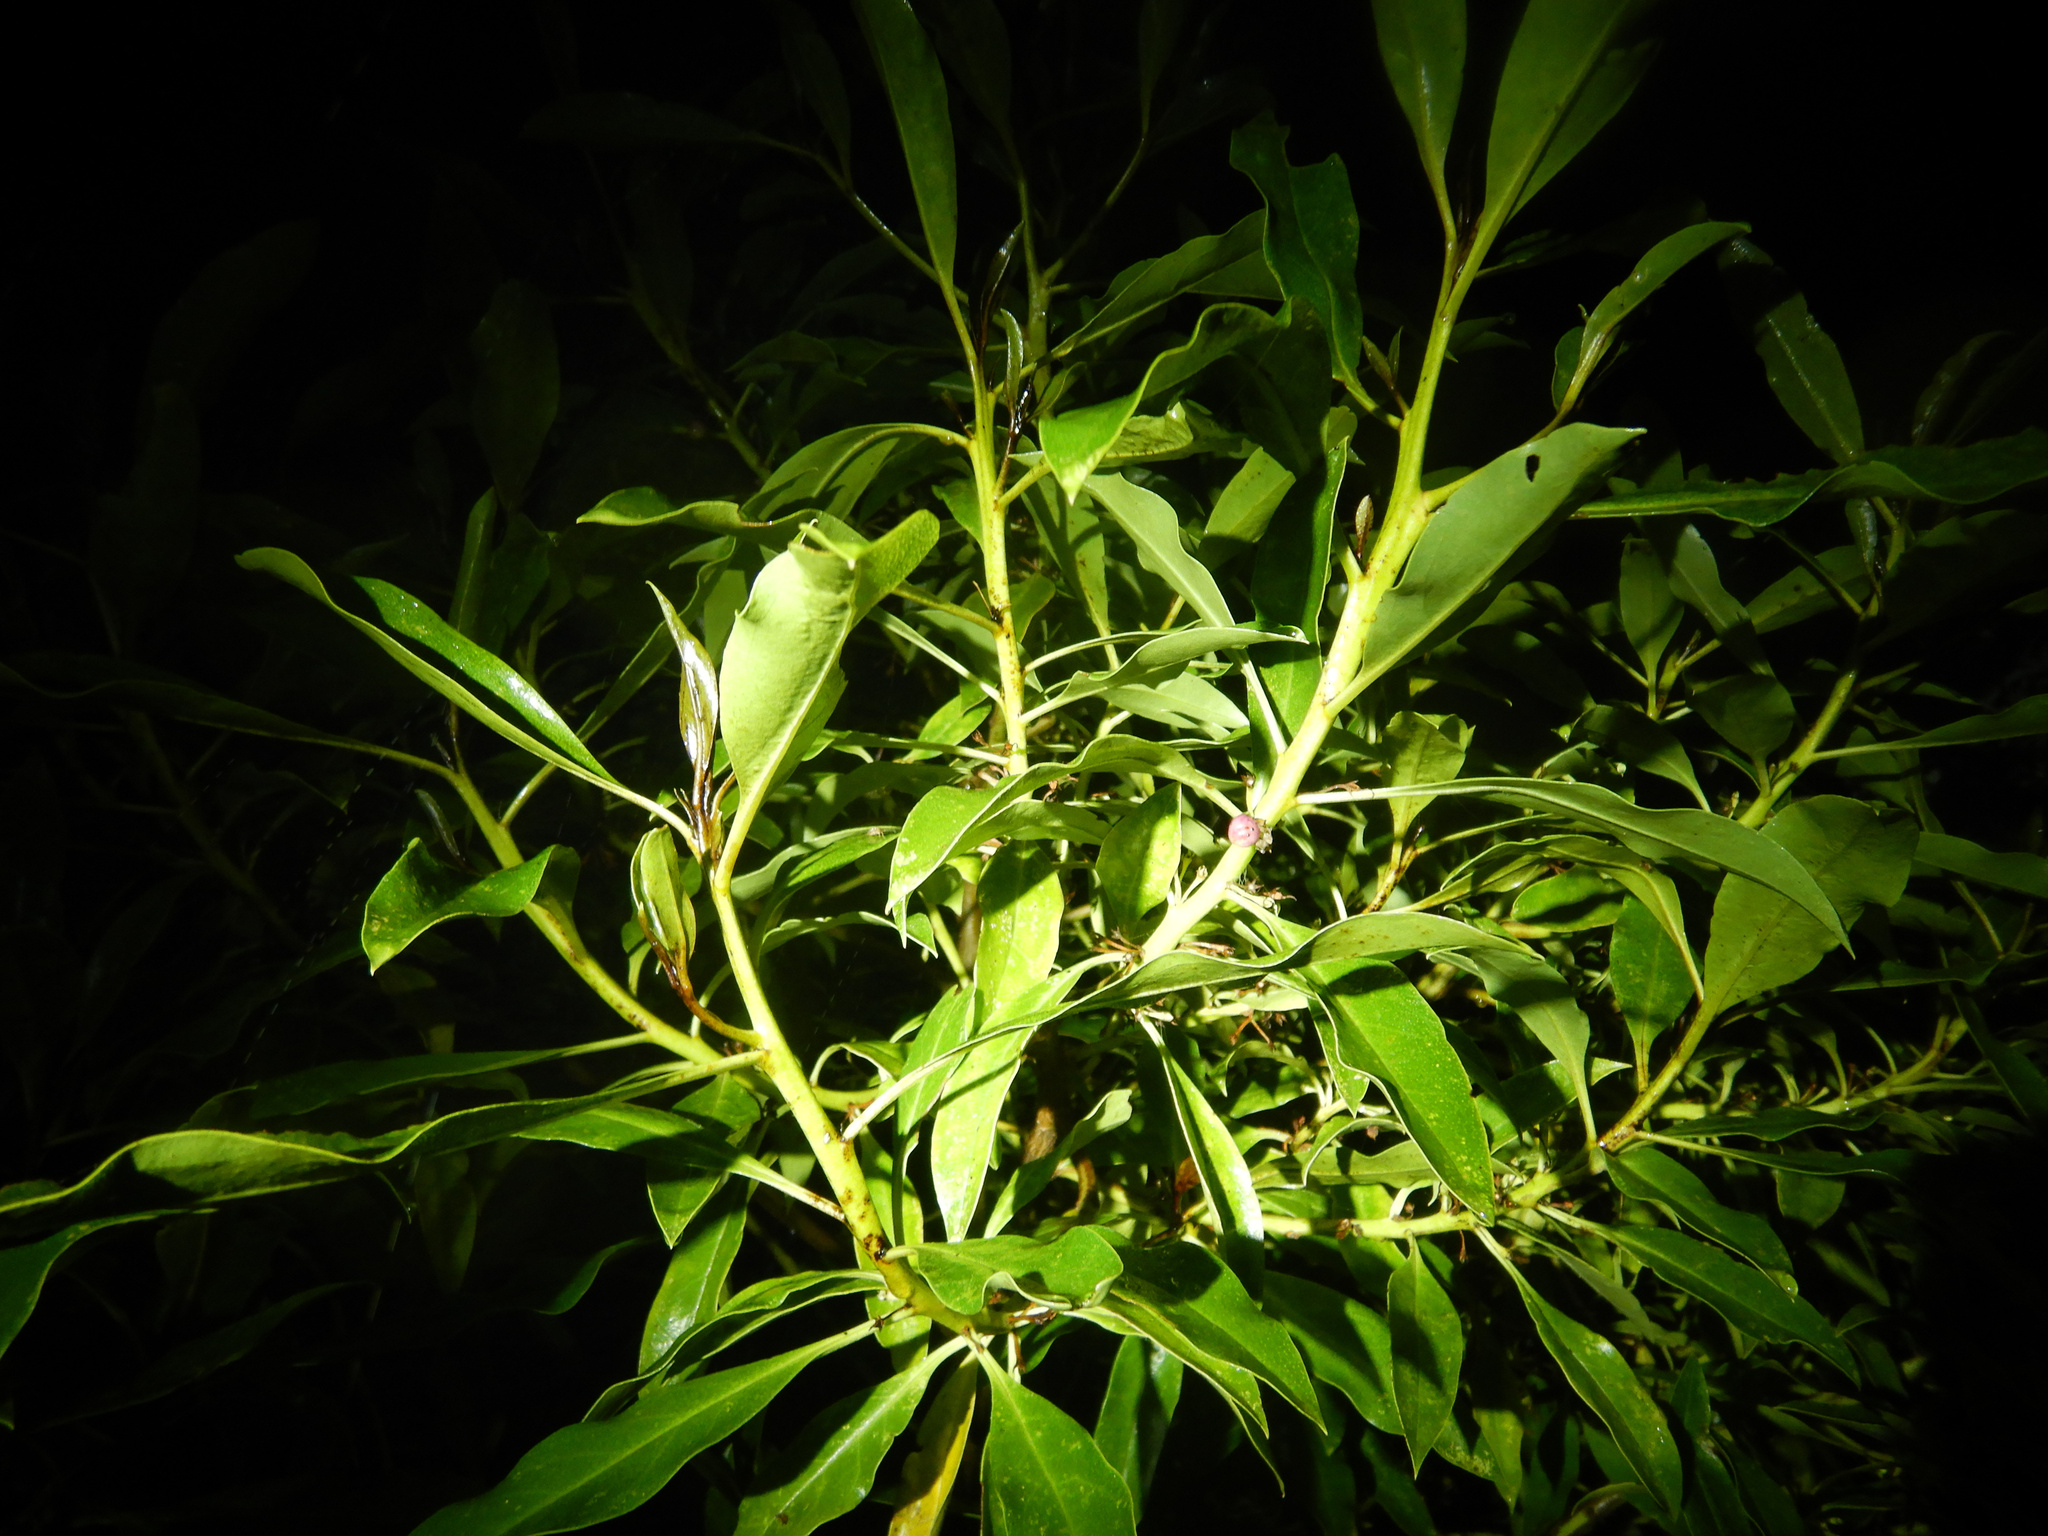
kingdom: Plantae
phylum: Tracheophyta
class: Magnoliopsida
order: Lamiales
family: Scrophulariaceae
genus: Myoporum
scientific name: Myoporum laetum
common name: Ngaio tree
